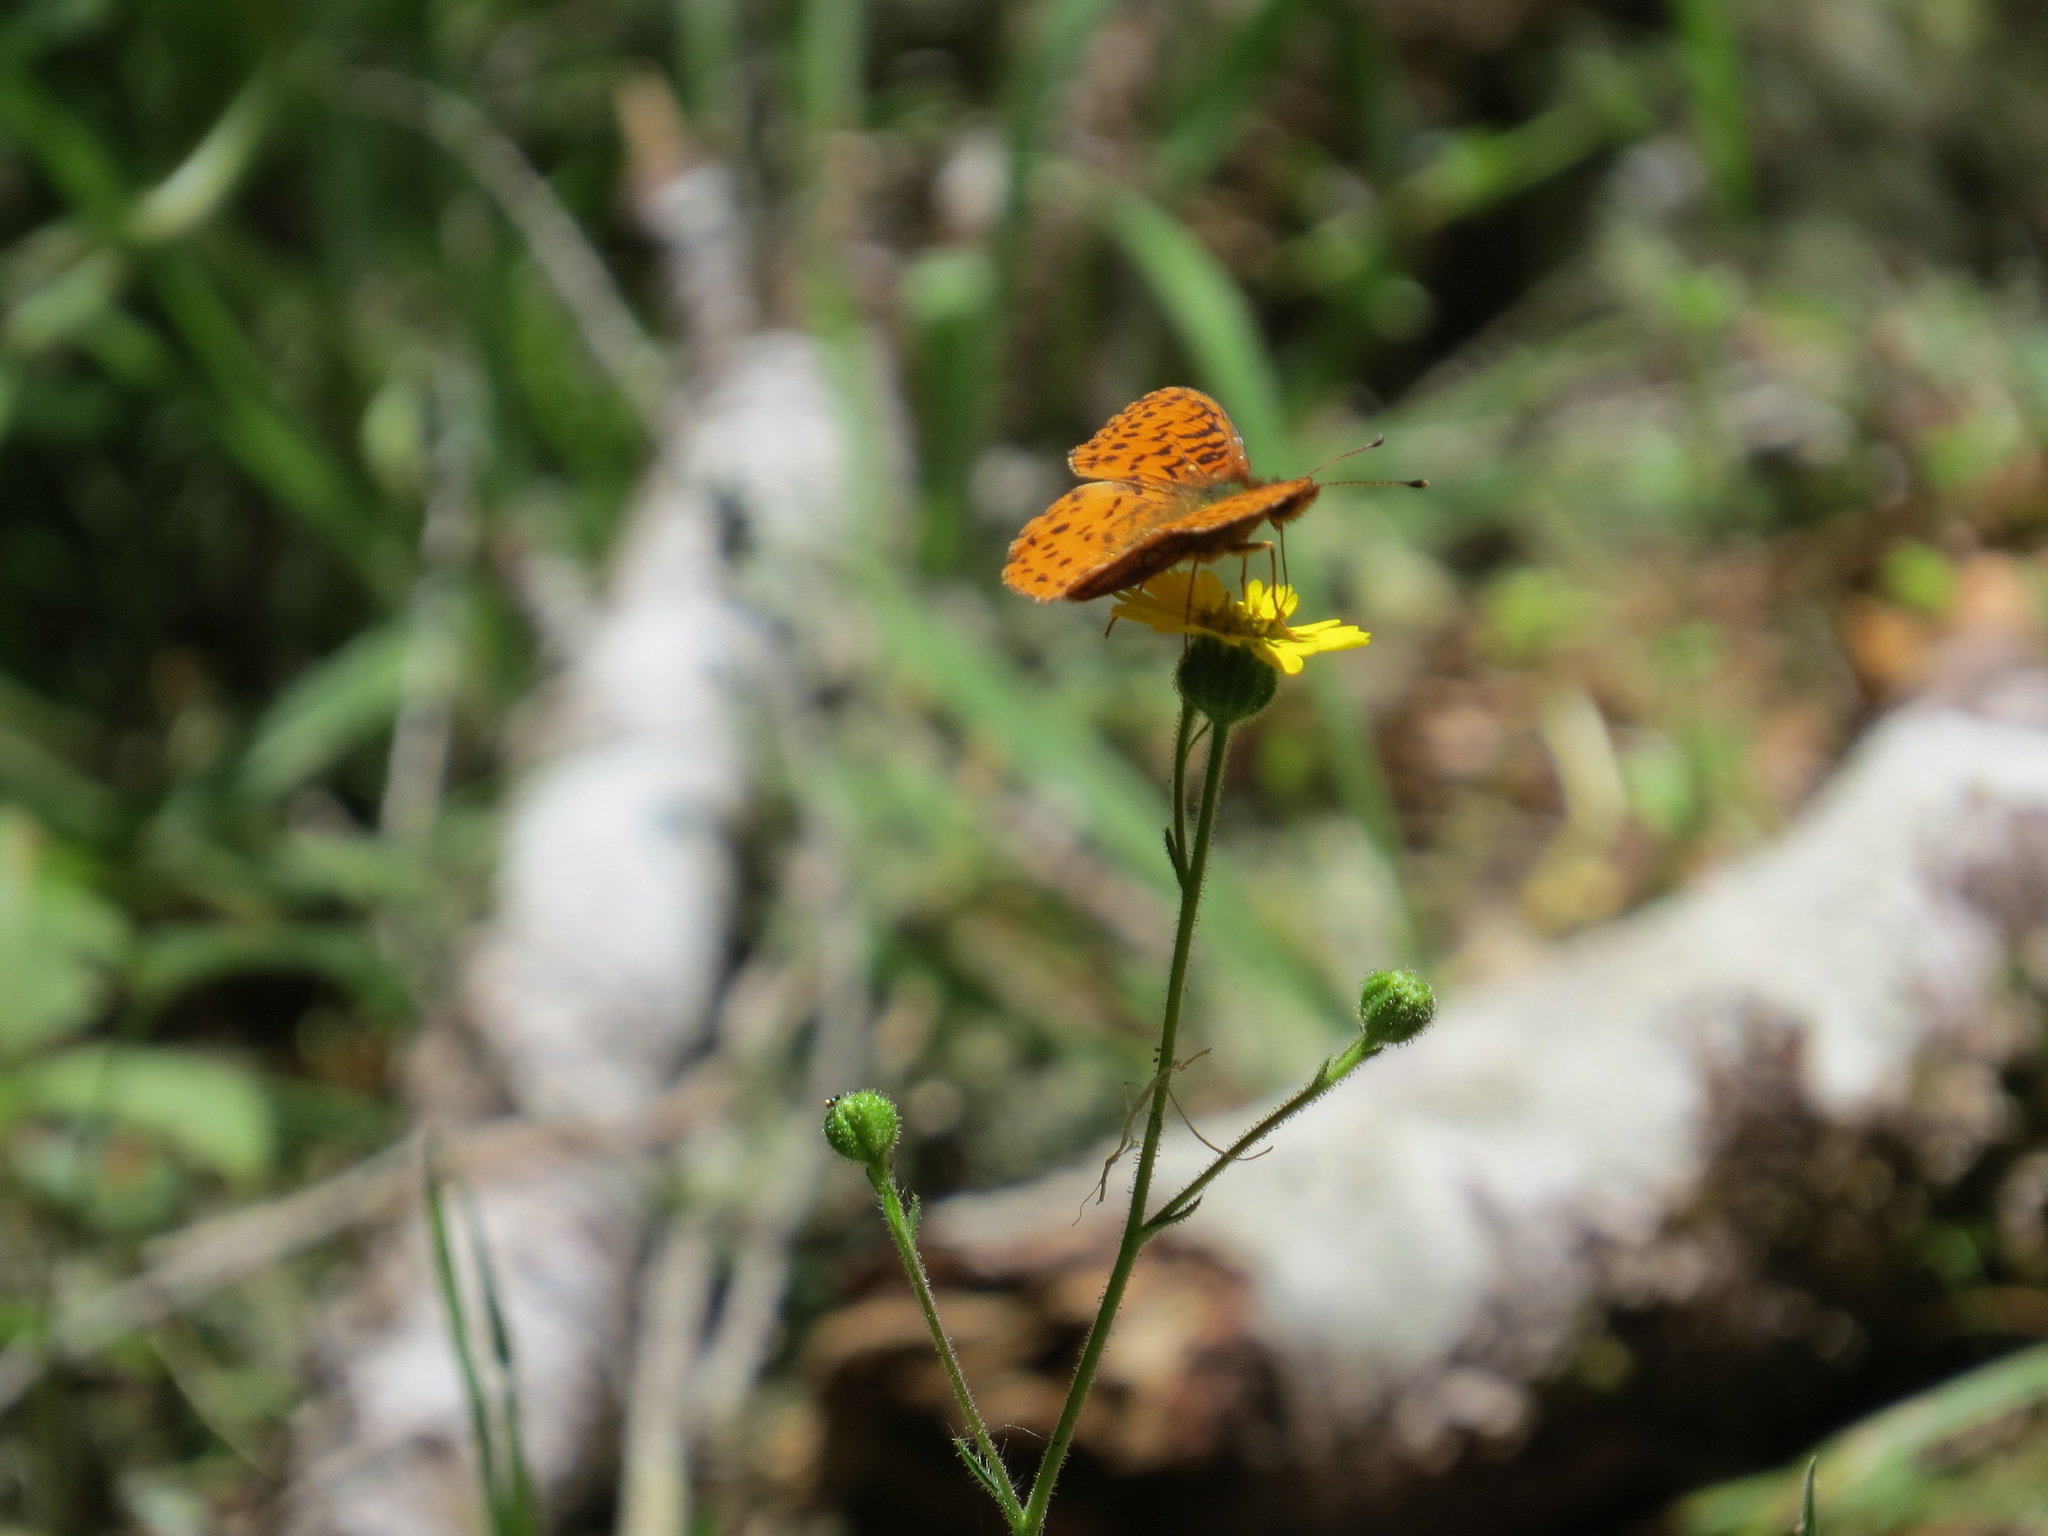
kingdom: Animalia
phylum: Arthropoda
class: Insecta
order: Lepidoptera
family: Nymphalidae
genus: Boloria
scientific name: Boloria epithore
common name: Pacific fritillary
